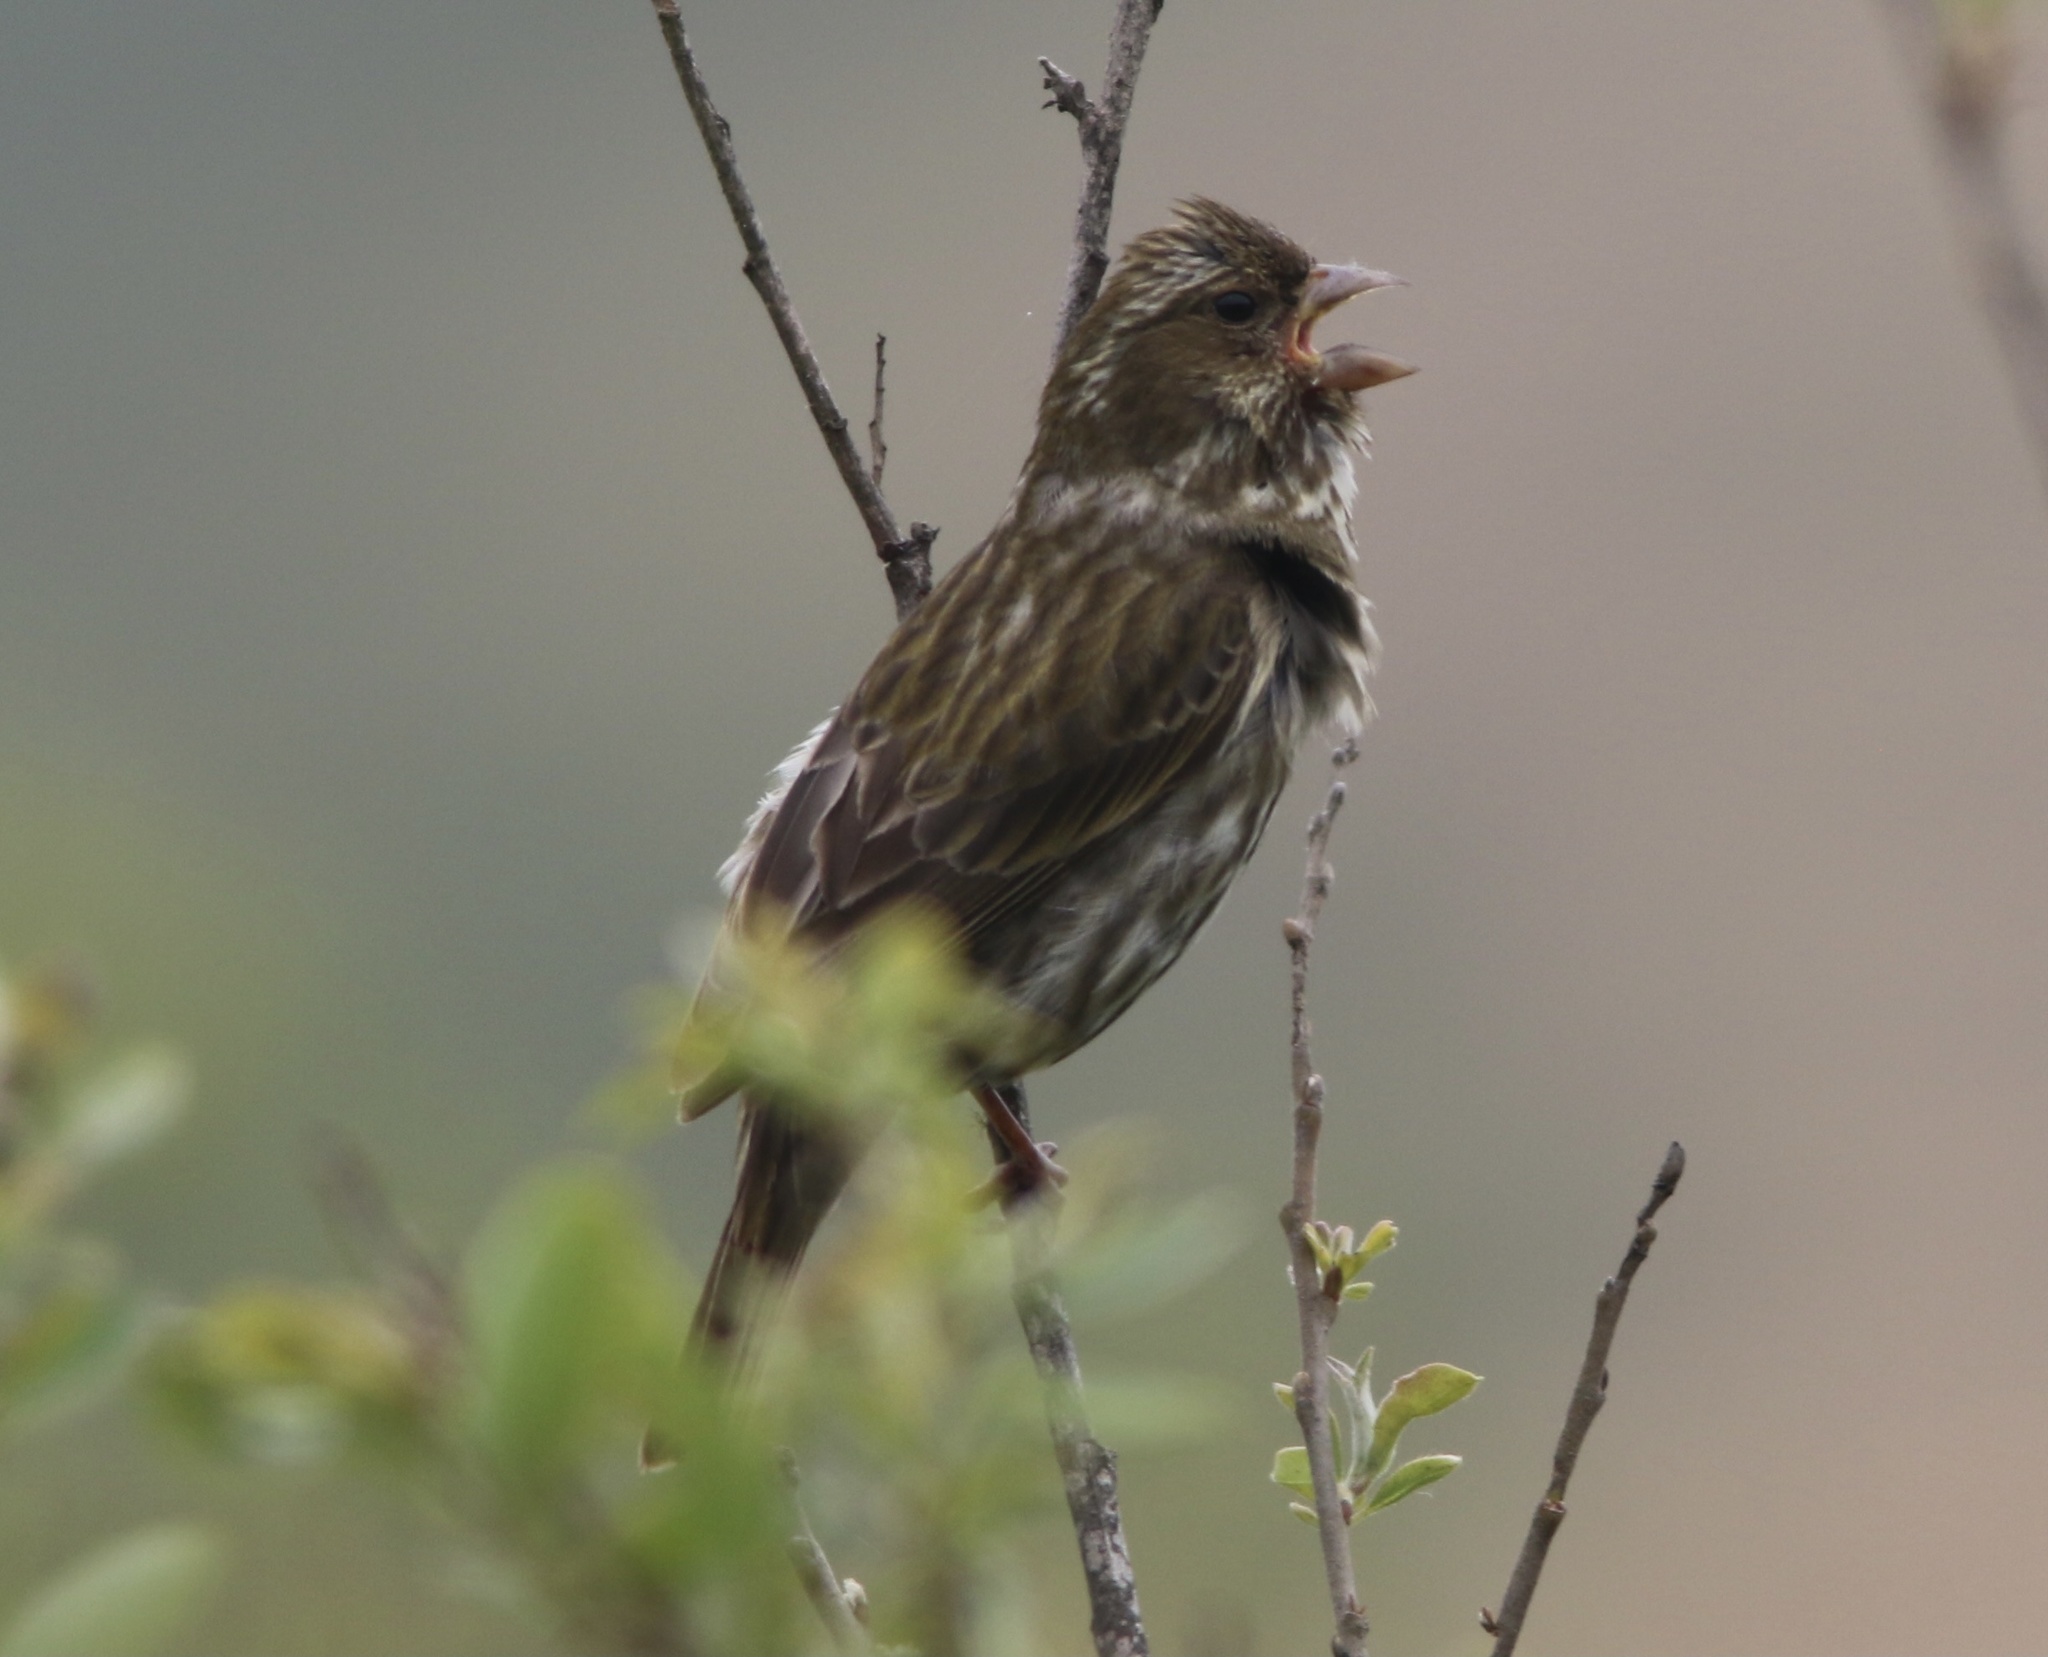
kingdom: Animalia
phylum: Chordata
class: Aves
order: Passeriformes
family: Fringillidae
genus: Haemorhous
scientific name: Haemorhous purpureus
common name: Purple finch
